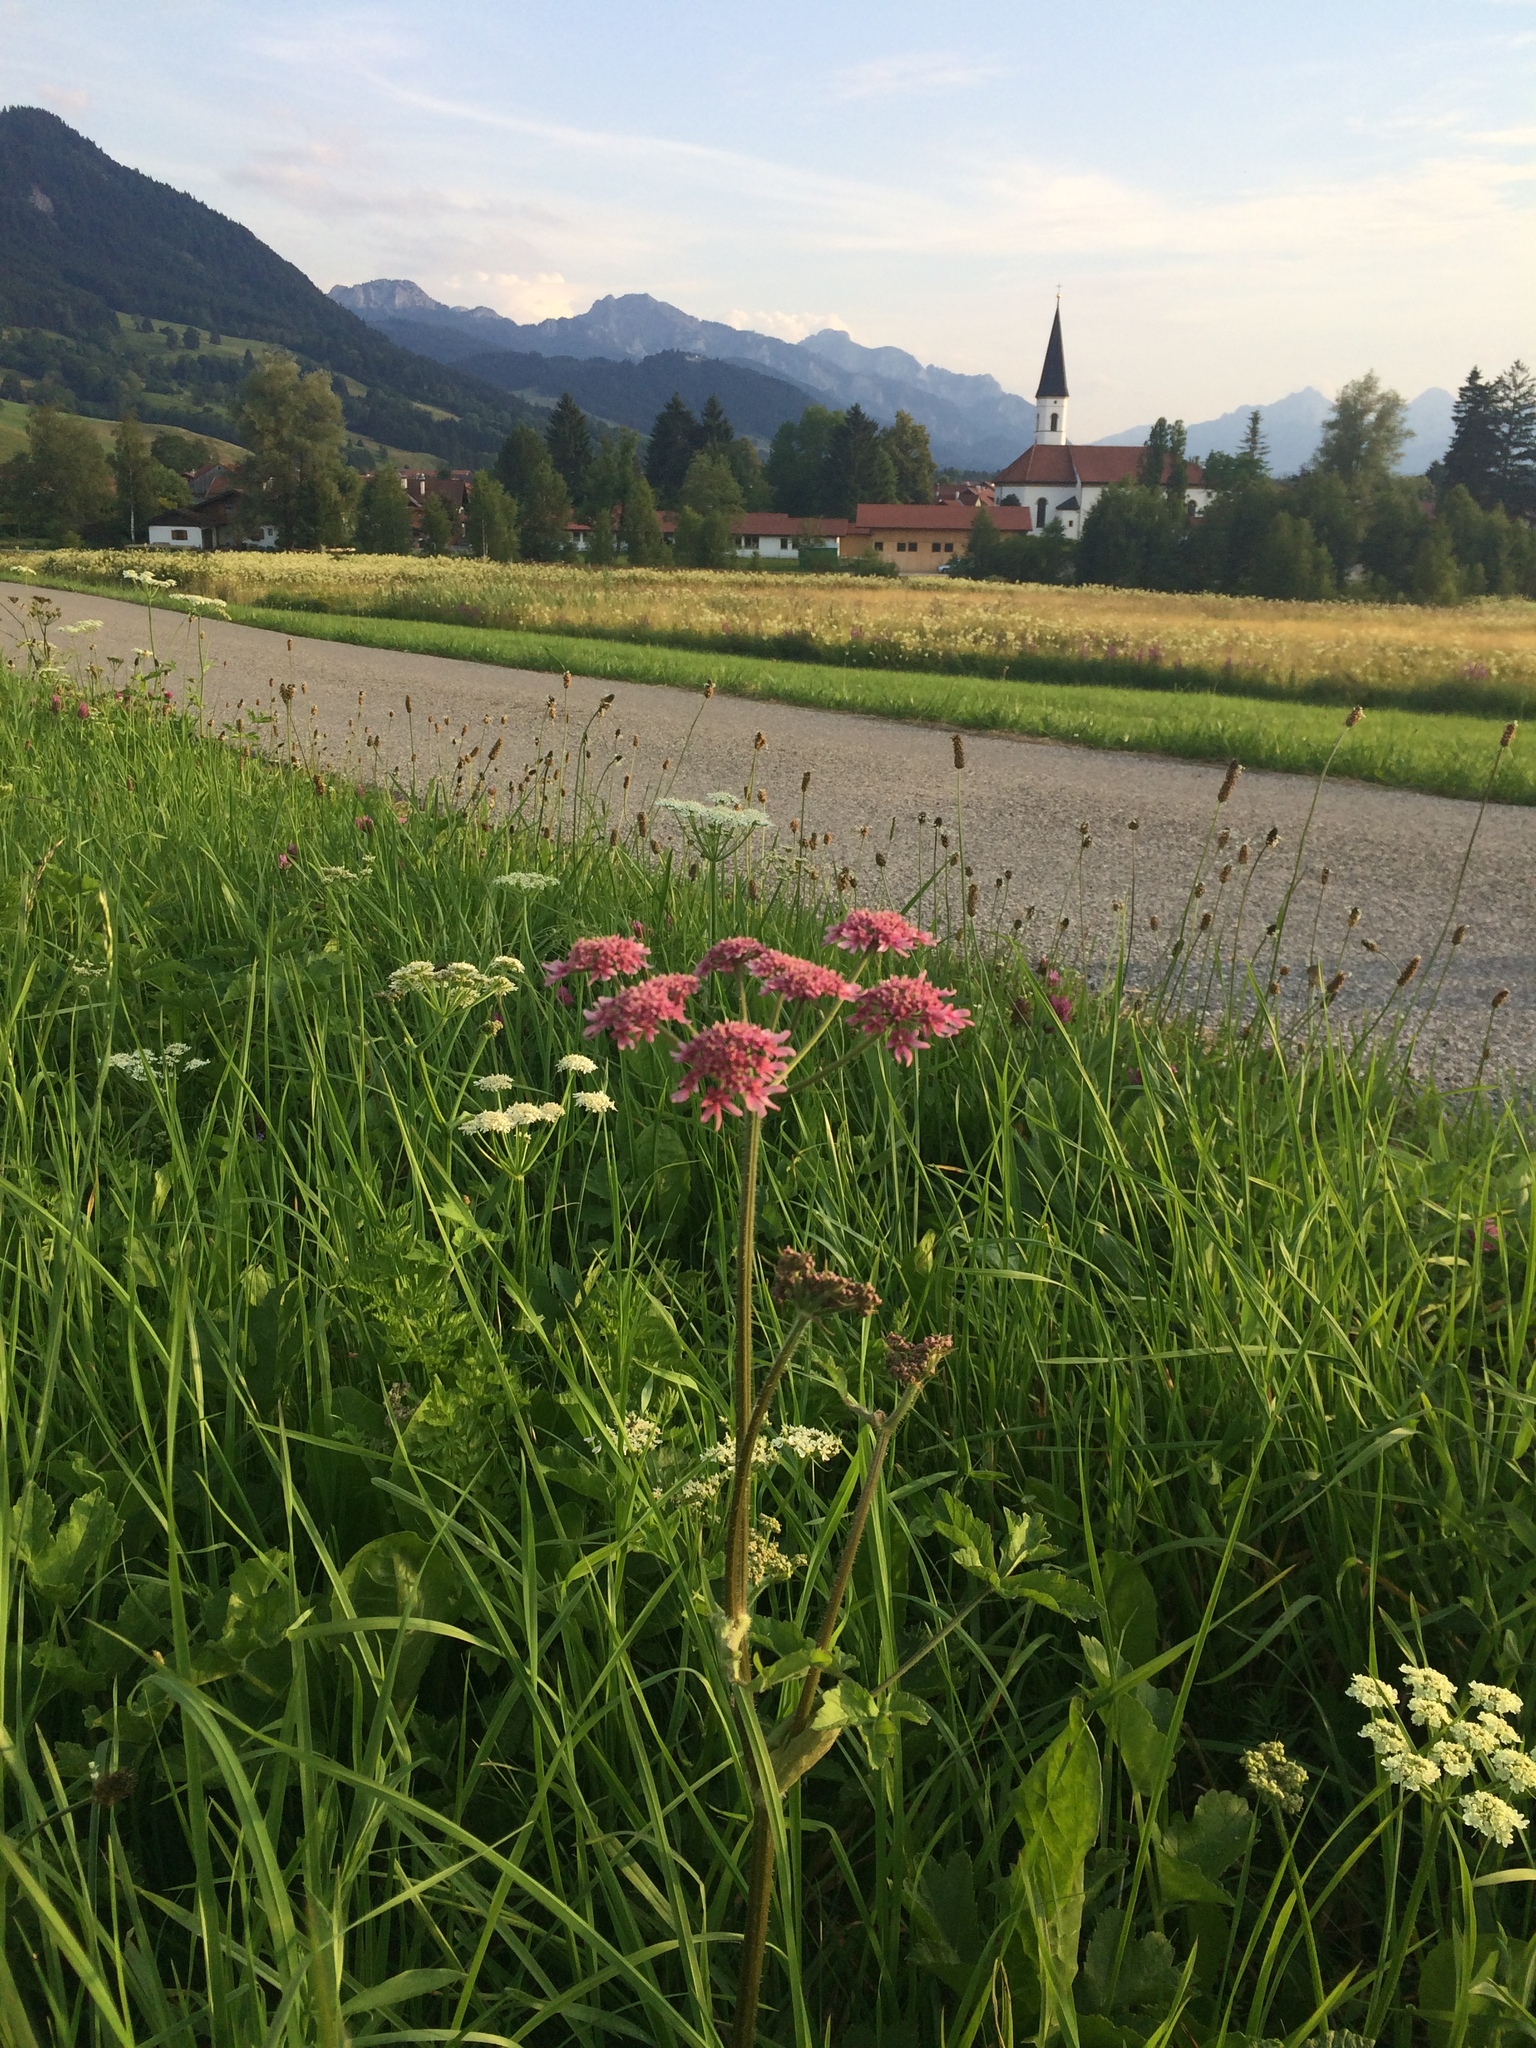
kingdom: Plantae
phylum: Tracheophyta
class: Magnoliopsida
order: Apiales
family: Apiaceae
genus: Heracleum
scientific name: Heracleum sphondylium
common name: Hogweed
